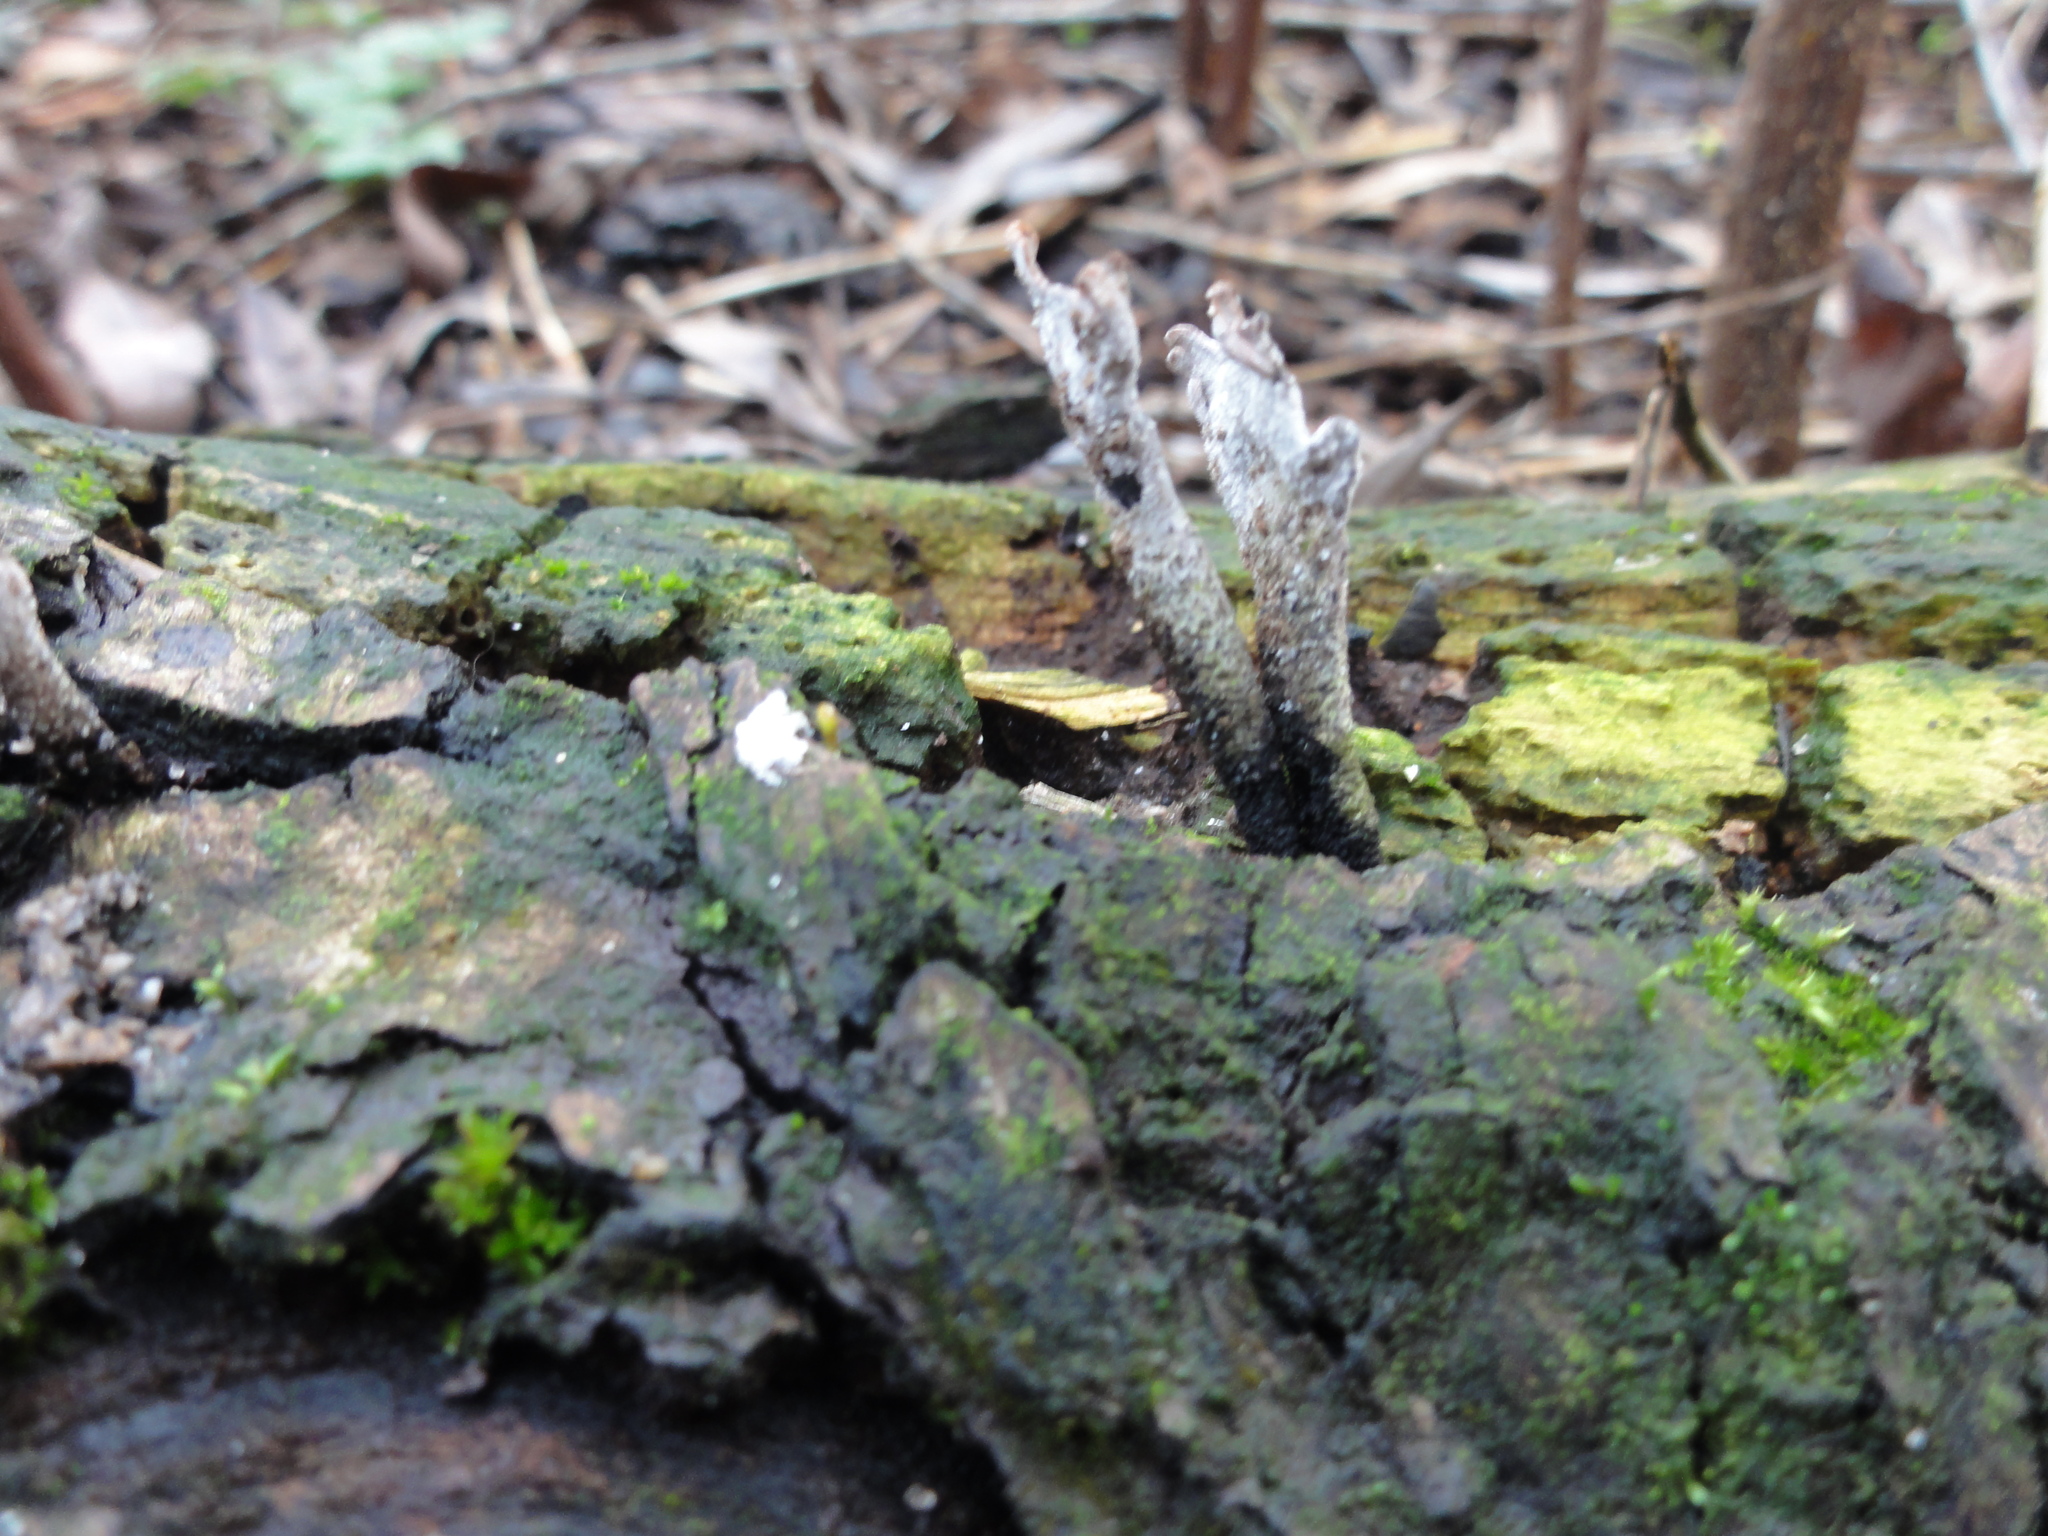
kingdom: Fungi
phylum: Ascomycota
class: Sordariomycetes
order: Xylariales
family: Xylariaceae
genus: Xylaria
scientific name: Xylaria hypoxylon
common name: Candle-snuff fungus
